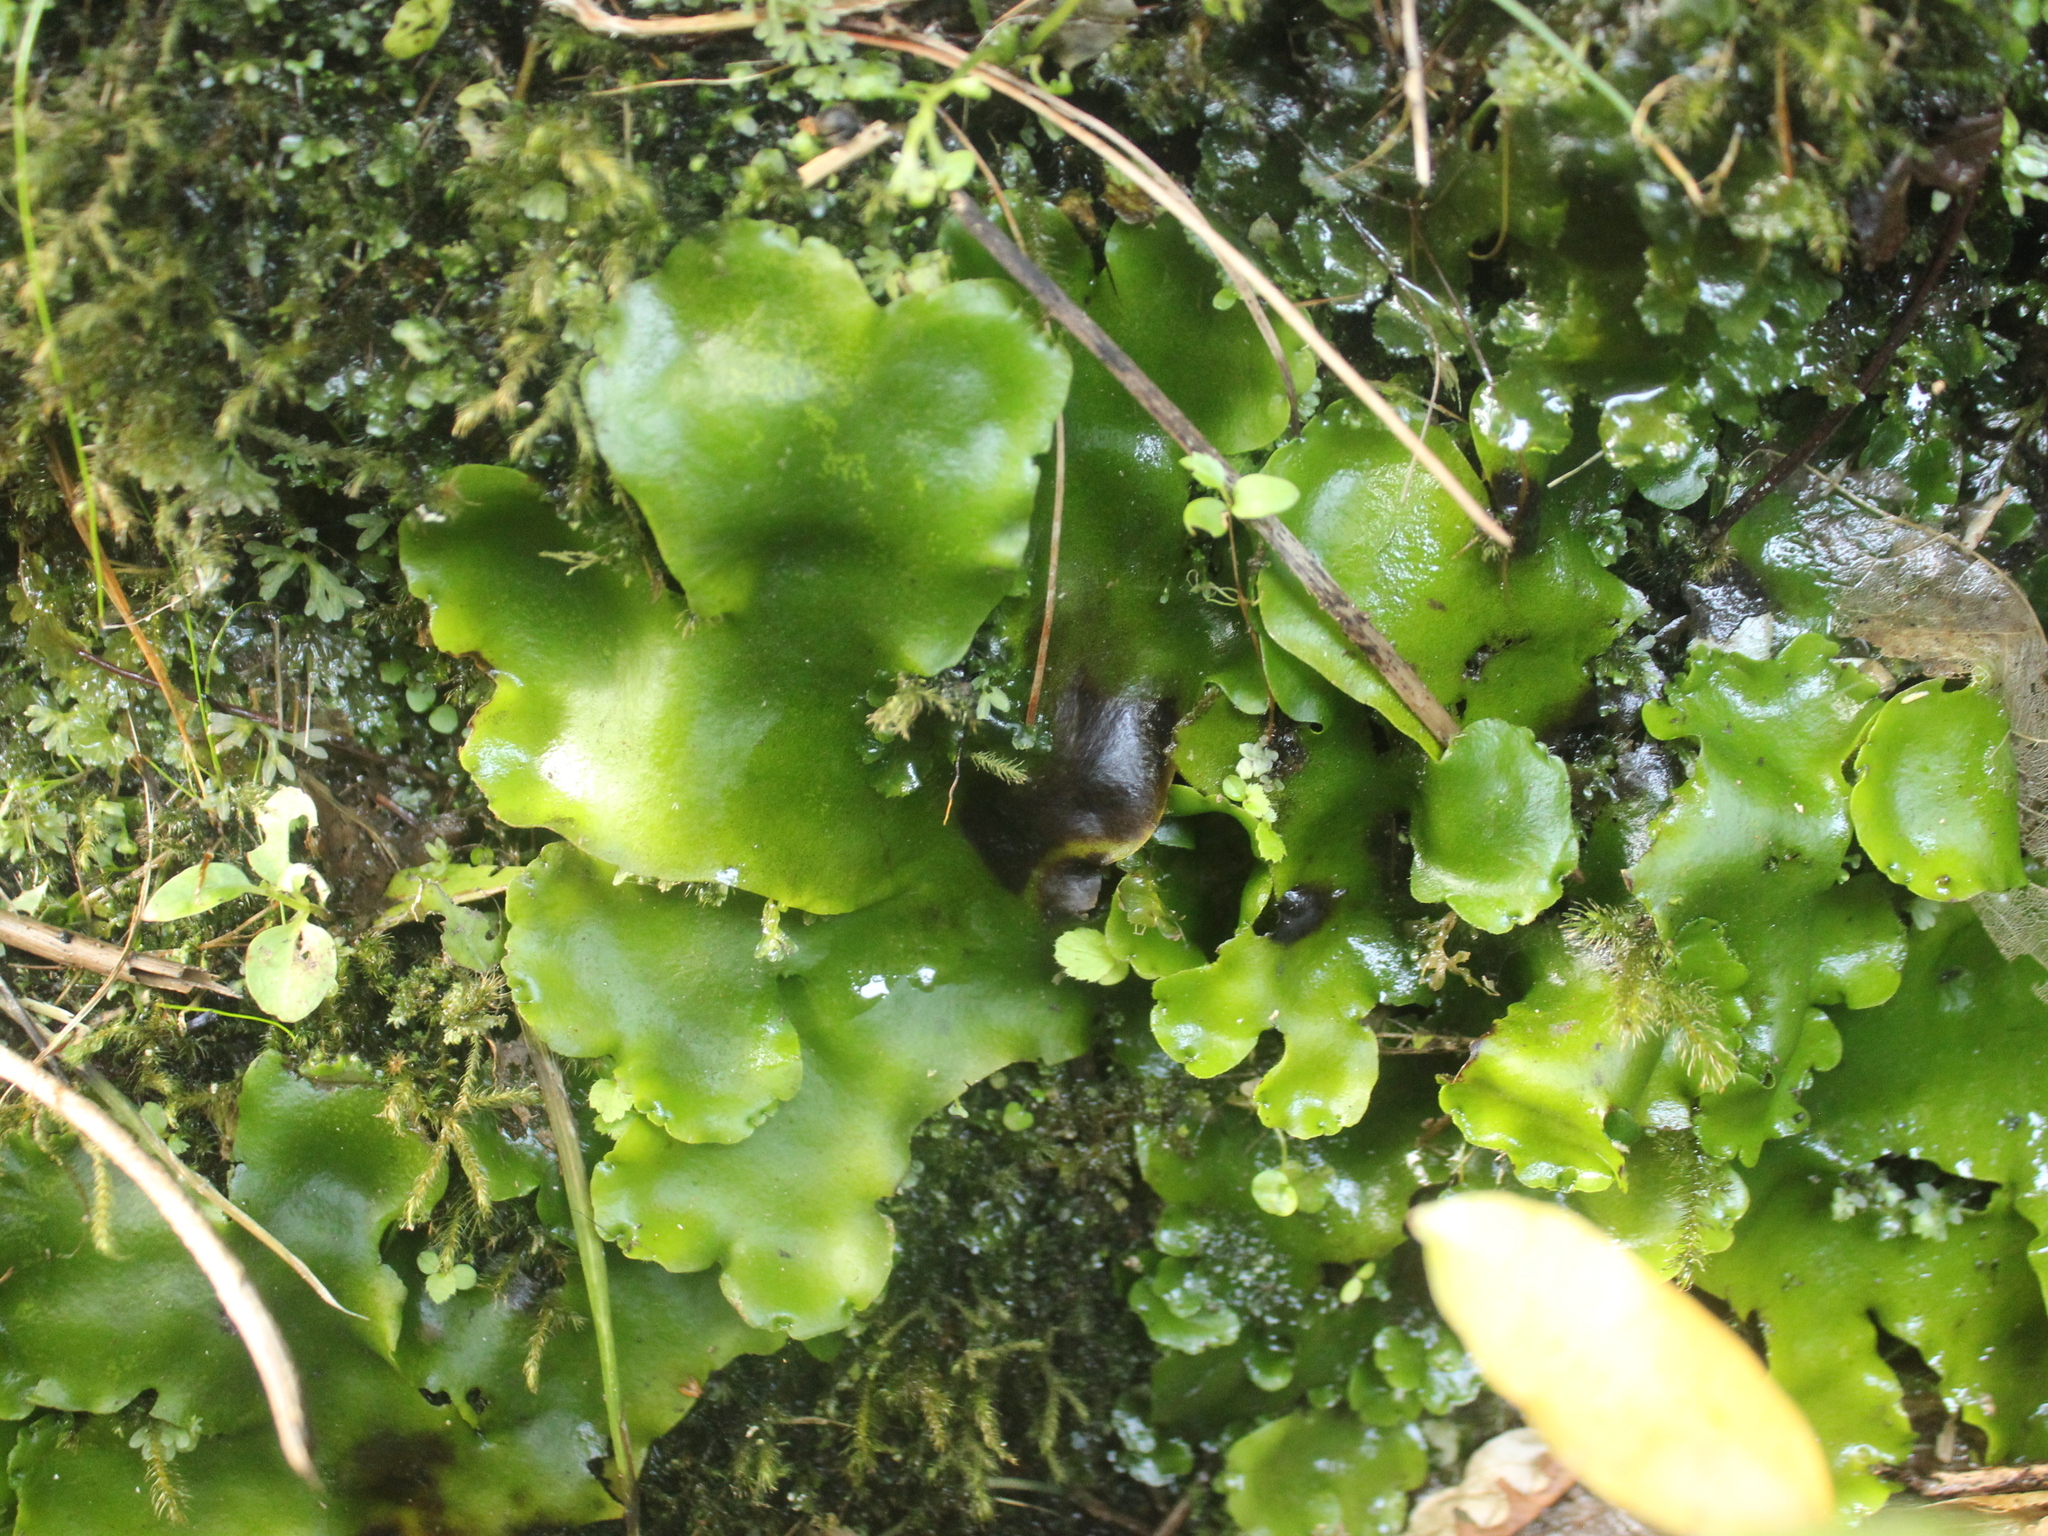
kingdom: Plantae
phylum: Marchantiophyta
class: Marchantiopsida
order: Marchantiales
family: Monocleaceae
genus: Monoclea
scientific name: Monoclea forsteri
